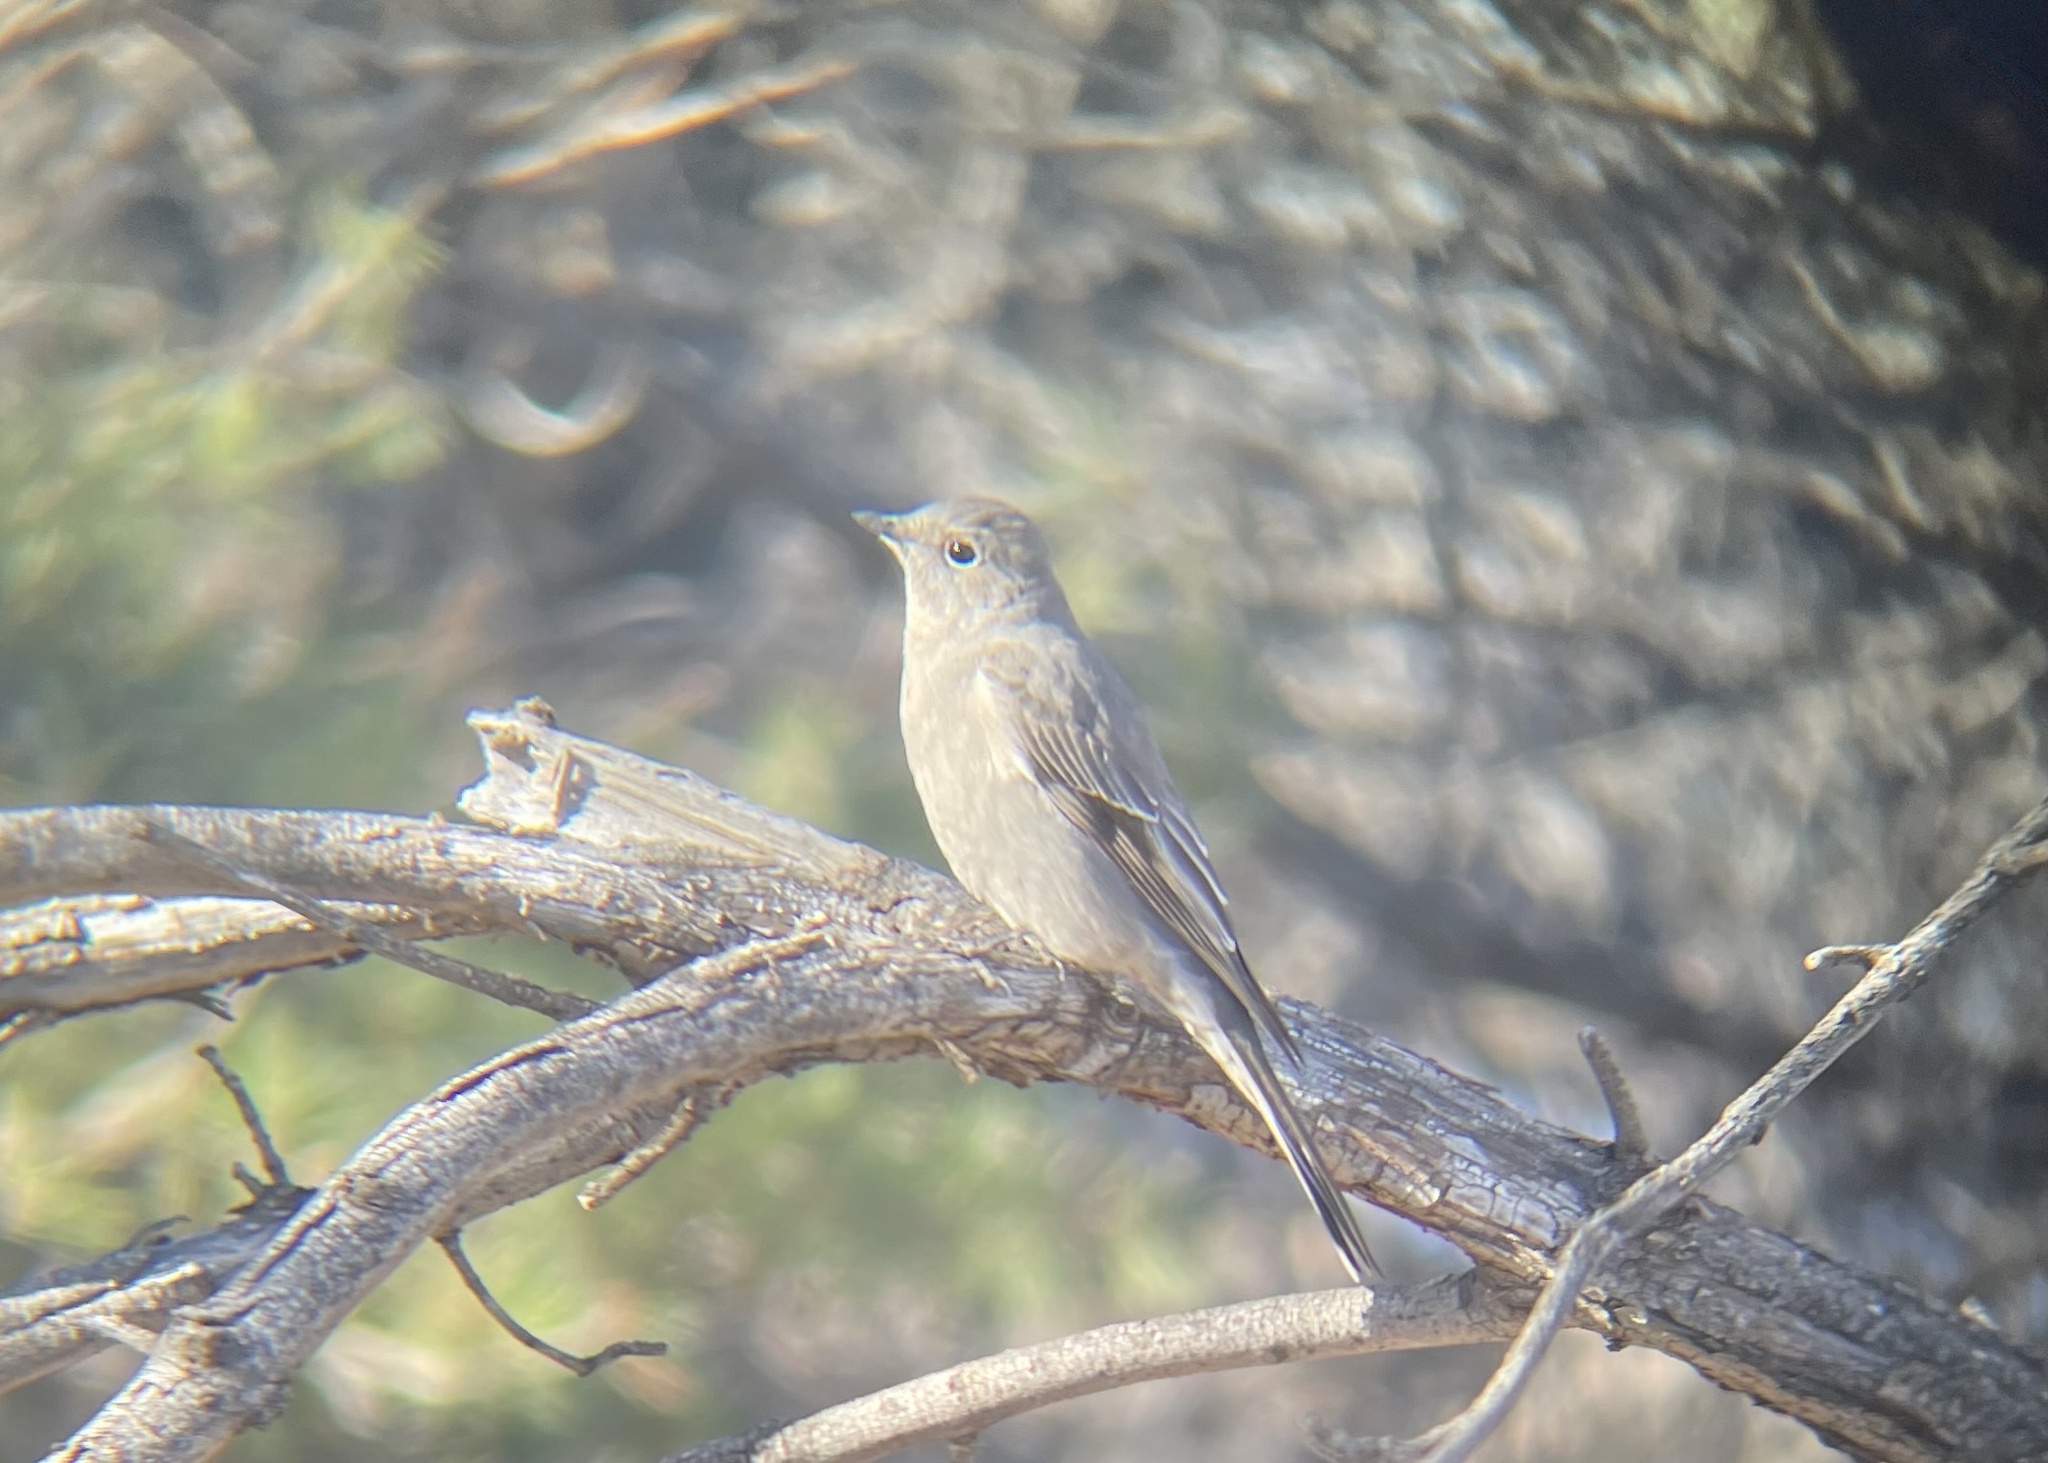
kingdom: Animalia
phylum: Chordata
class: Aves
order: Passeriformes
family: Turdidae
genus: Myadestes
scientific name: Myadestes townsendi
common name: Townsend's solitaire
